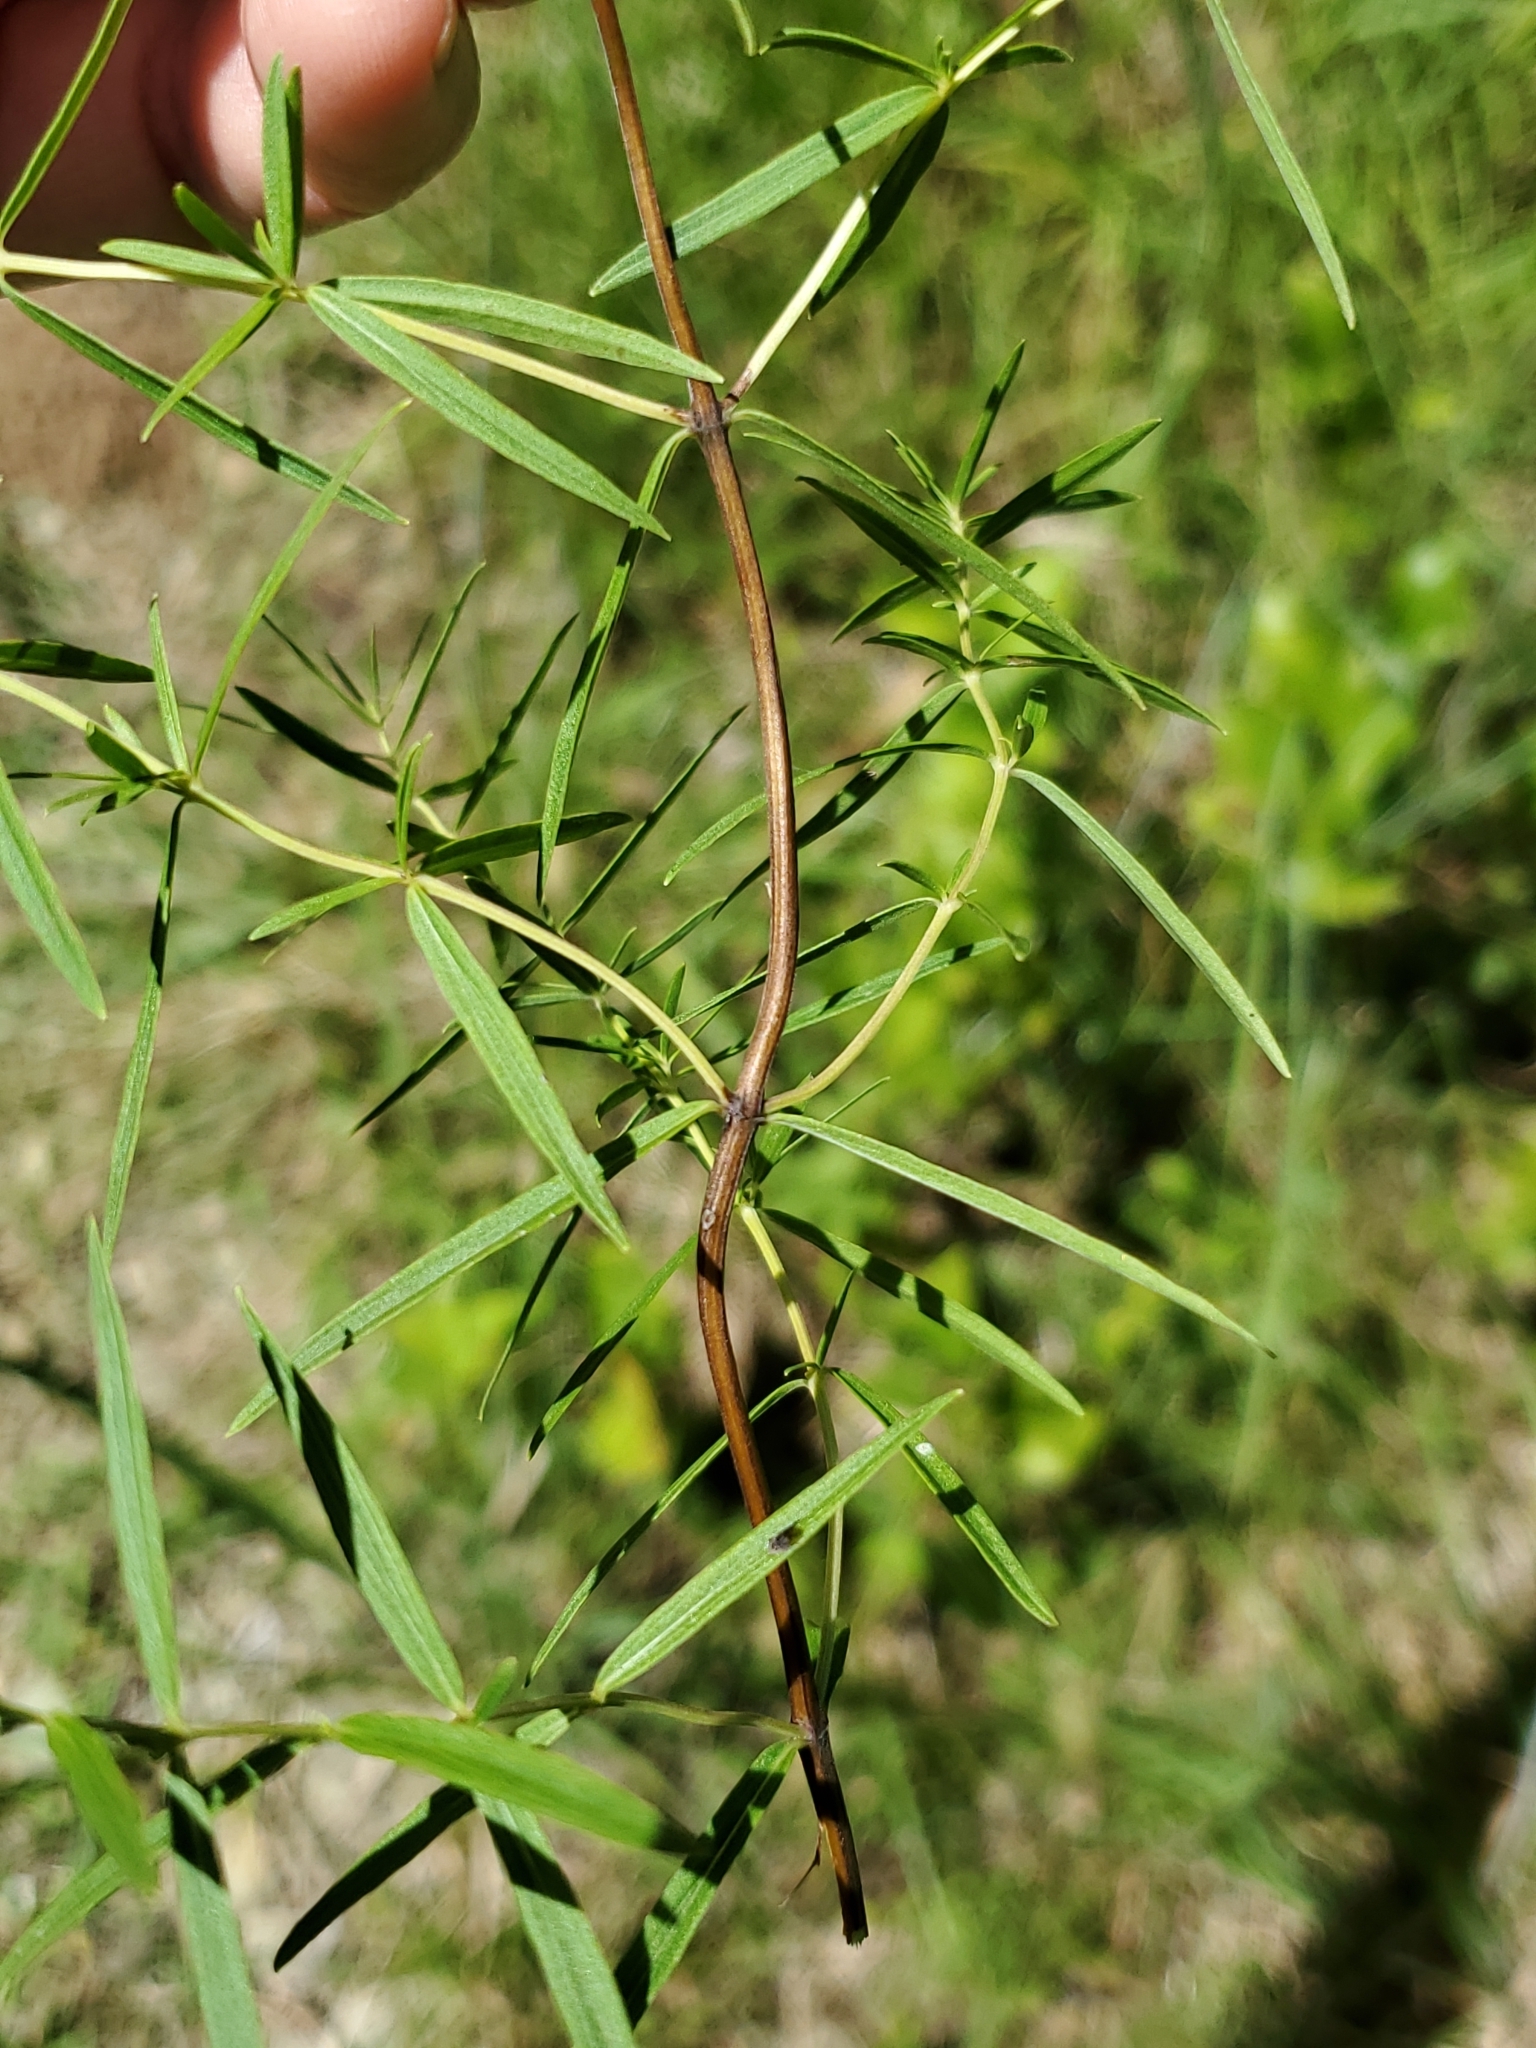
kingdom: Plantae
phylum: Tracheophyta
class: Magnoliopsida
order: Lamiales
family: Lamiaceae
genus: Pycnanthemum
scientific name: Pycnanthemum tenuifolium
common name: Narrow-leaf mountain-mint
